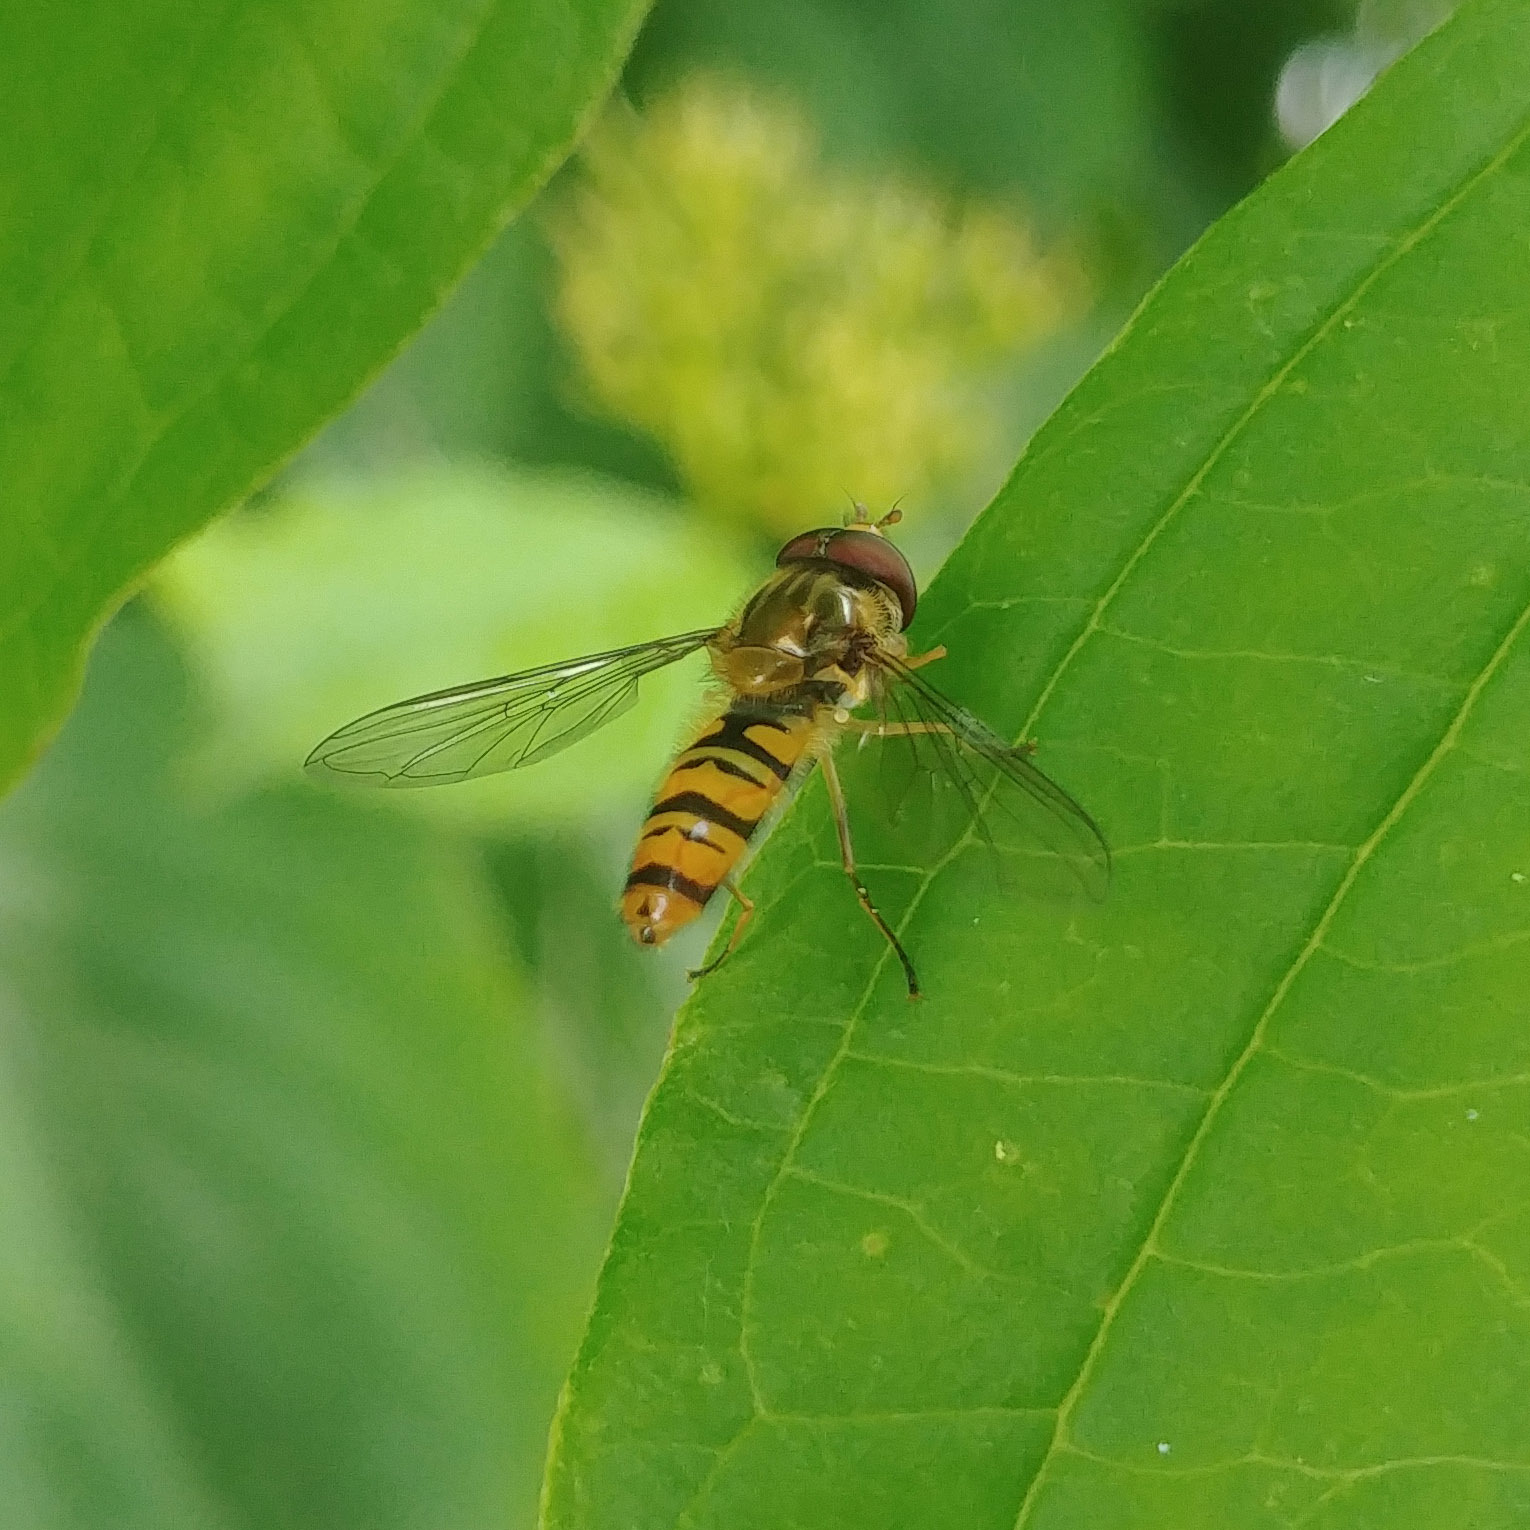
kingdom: Animalia
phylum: Arthropoda
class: Insecta
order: Diptera
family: Syrphidae
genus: Episyrphus
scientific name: Episyrphus balteatus
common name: Marmalade hoverfly
